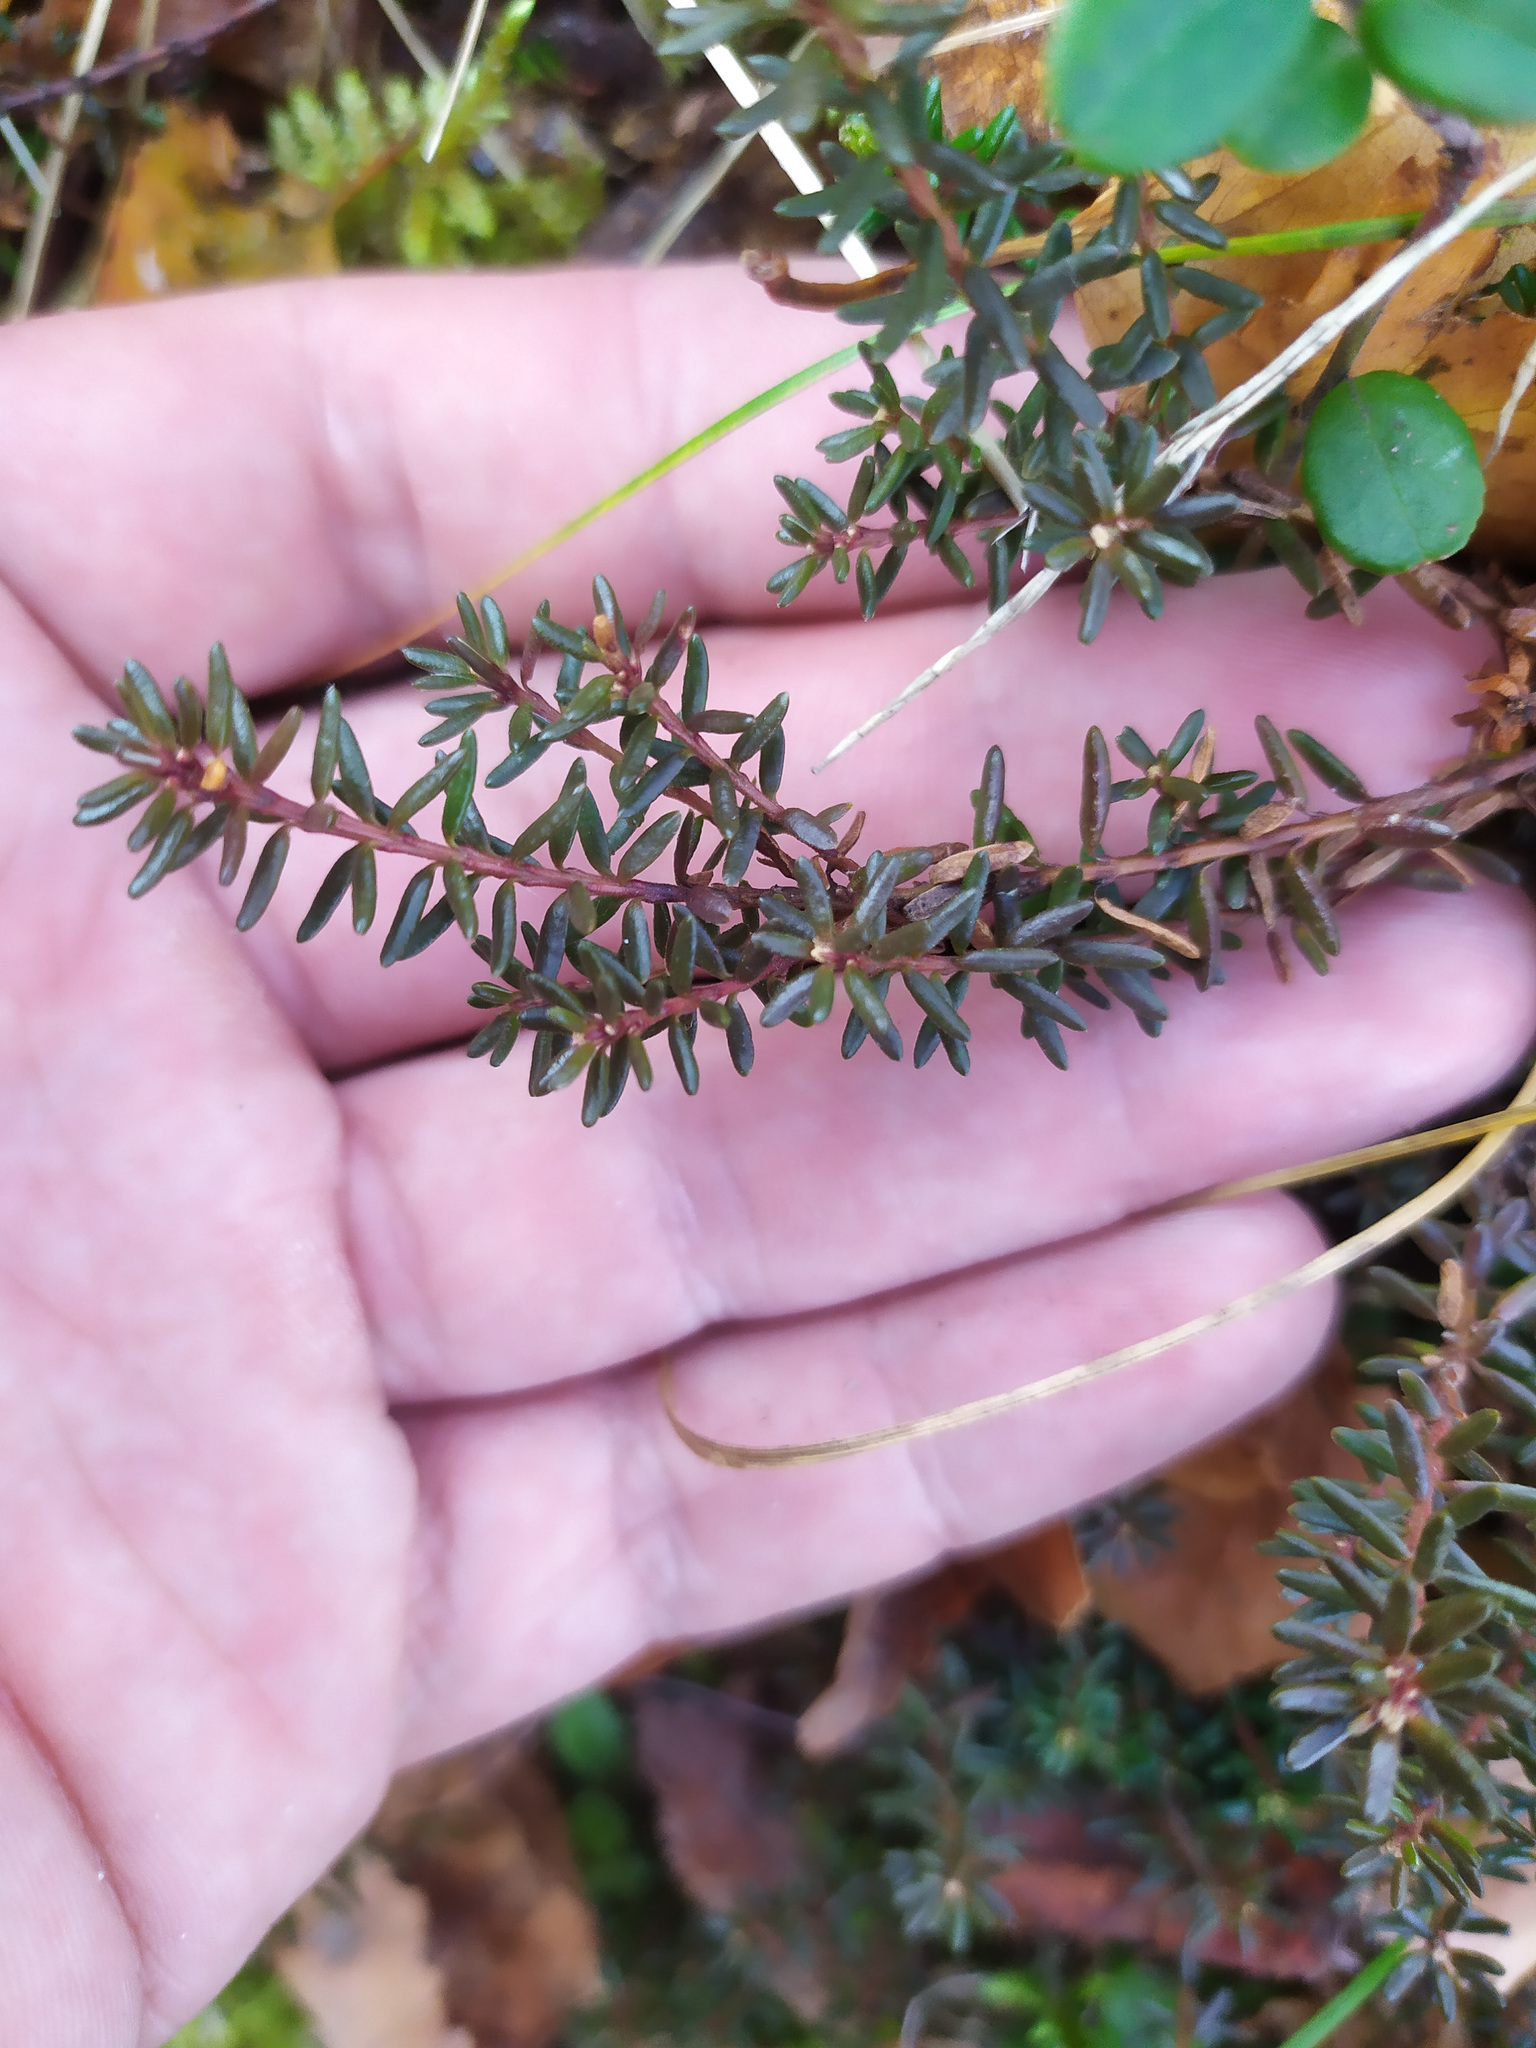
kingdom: Plantae
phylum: Tracheophyta
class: Magnoliopsida
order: Ericales
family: Ericaceae
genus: Empetrum
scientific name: Empetrum nigrum
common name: Black crowberry
